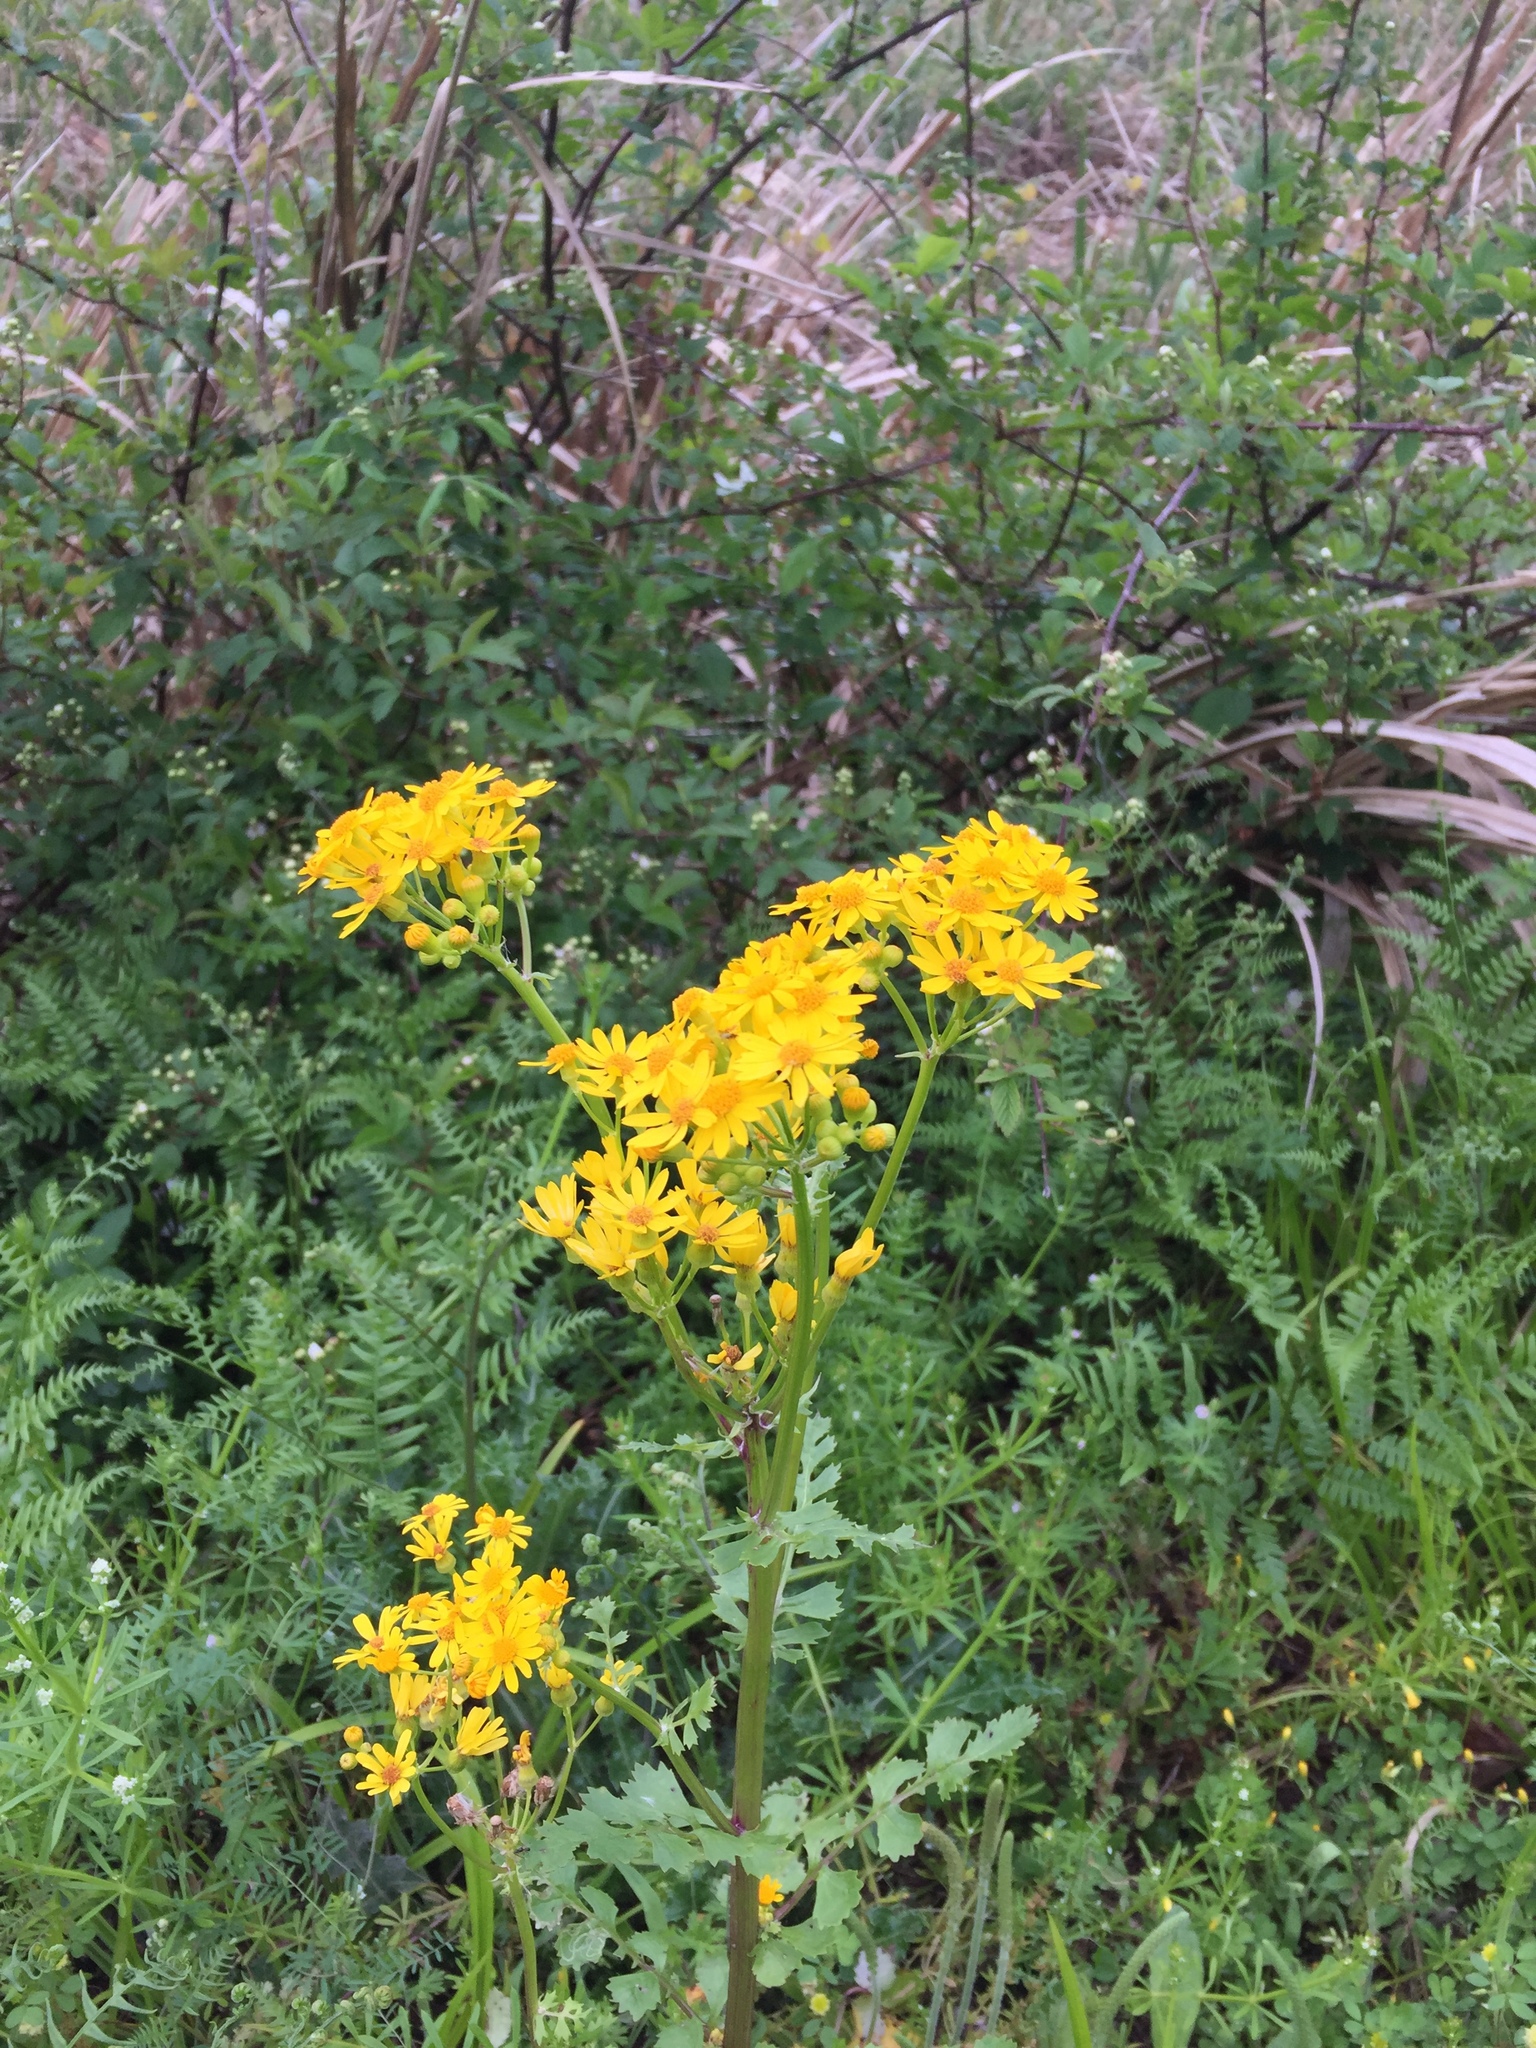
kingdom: Plantae
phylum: Tracheophyta
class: Magnoliopsida
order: Asterales
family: Asteraceae
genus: Packera
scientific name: Packera glabella
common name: Butterweed
